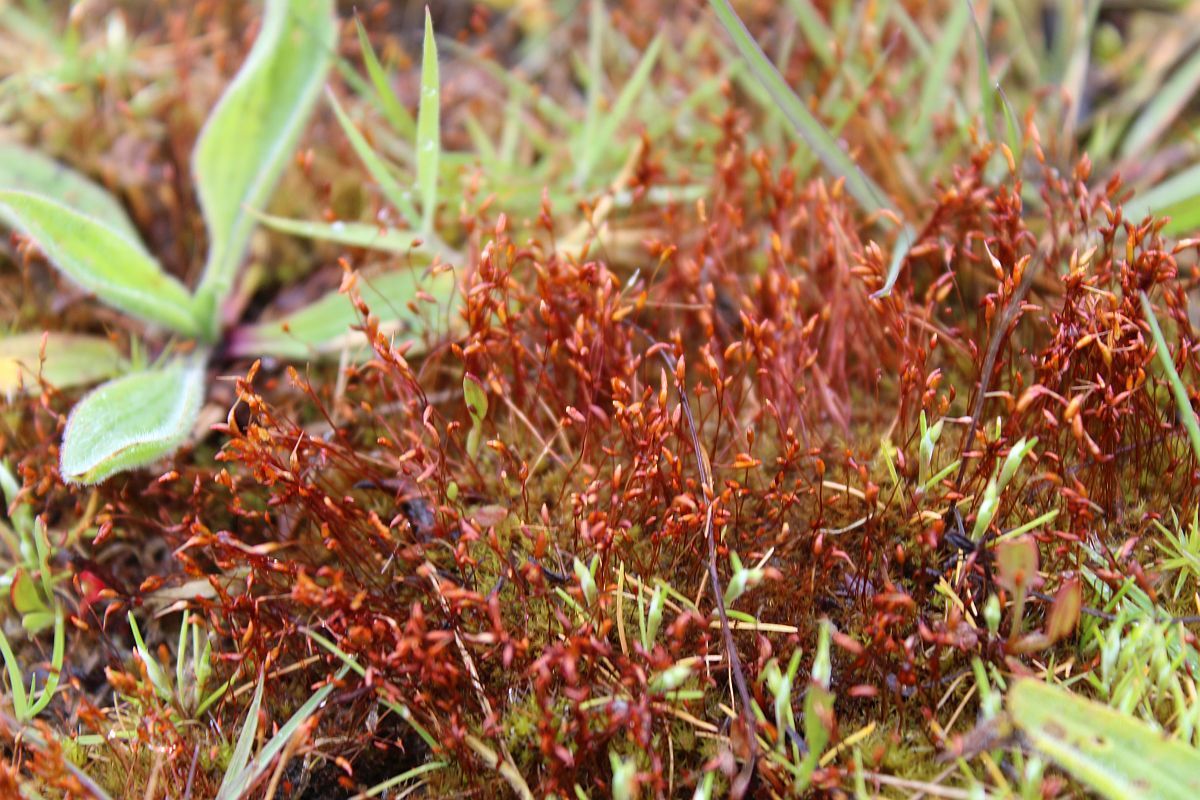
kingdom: Plantae
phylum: Bryophyta
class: Bryopsida
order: Dicranales
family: Ditrichaceae
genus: Ceratodon
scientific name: Ceratodon purpureus
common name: Redshank
